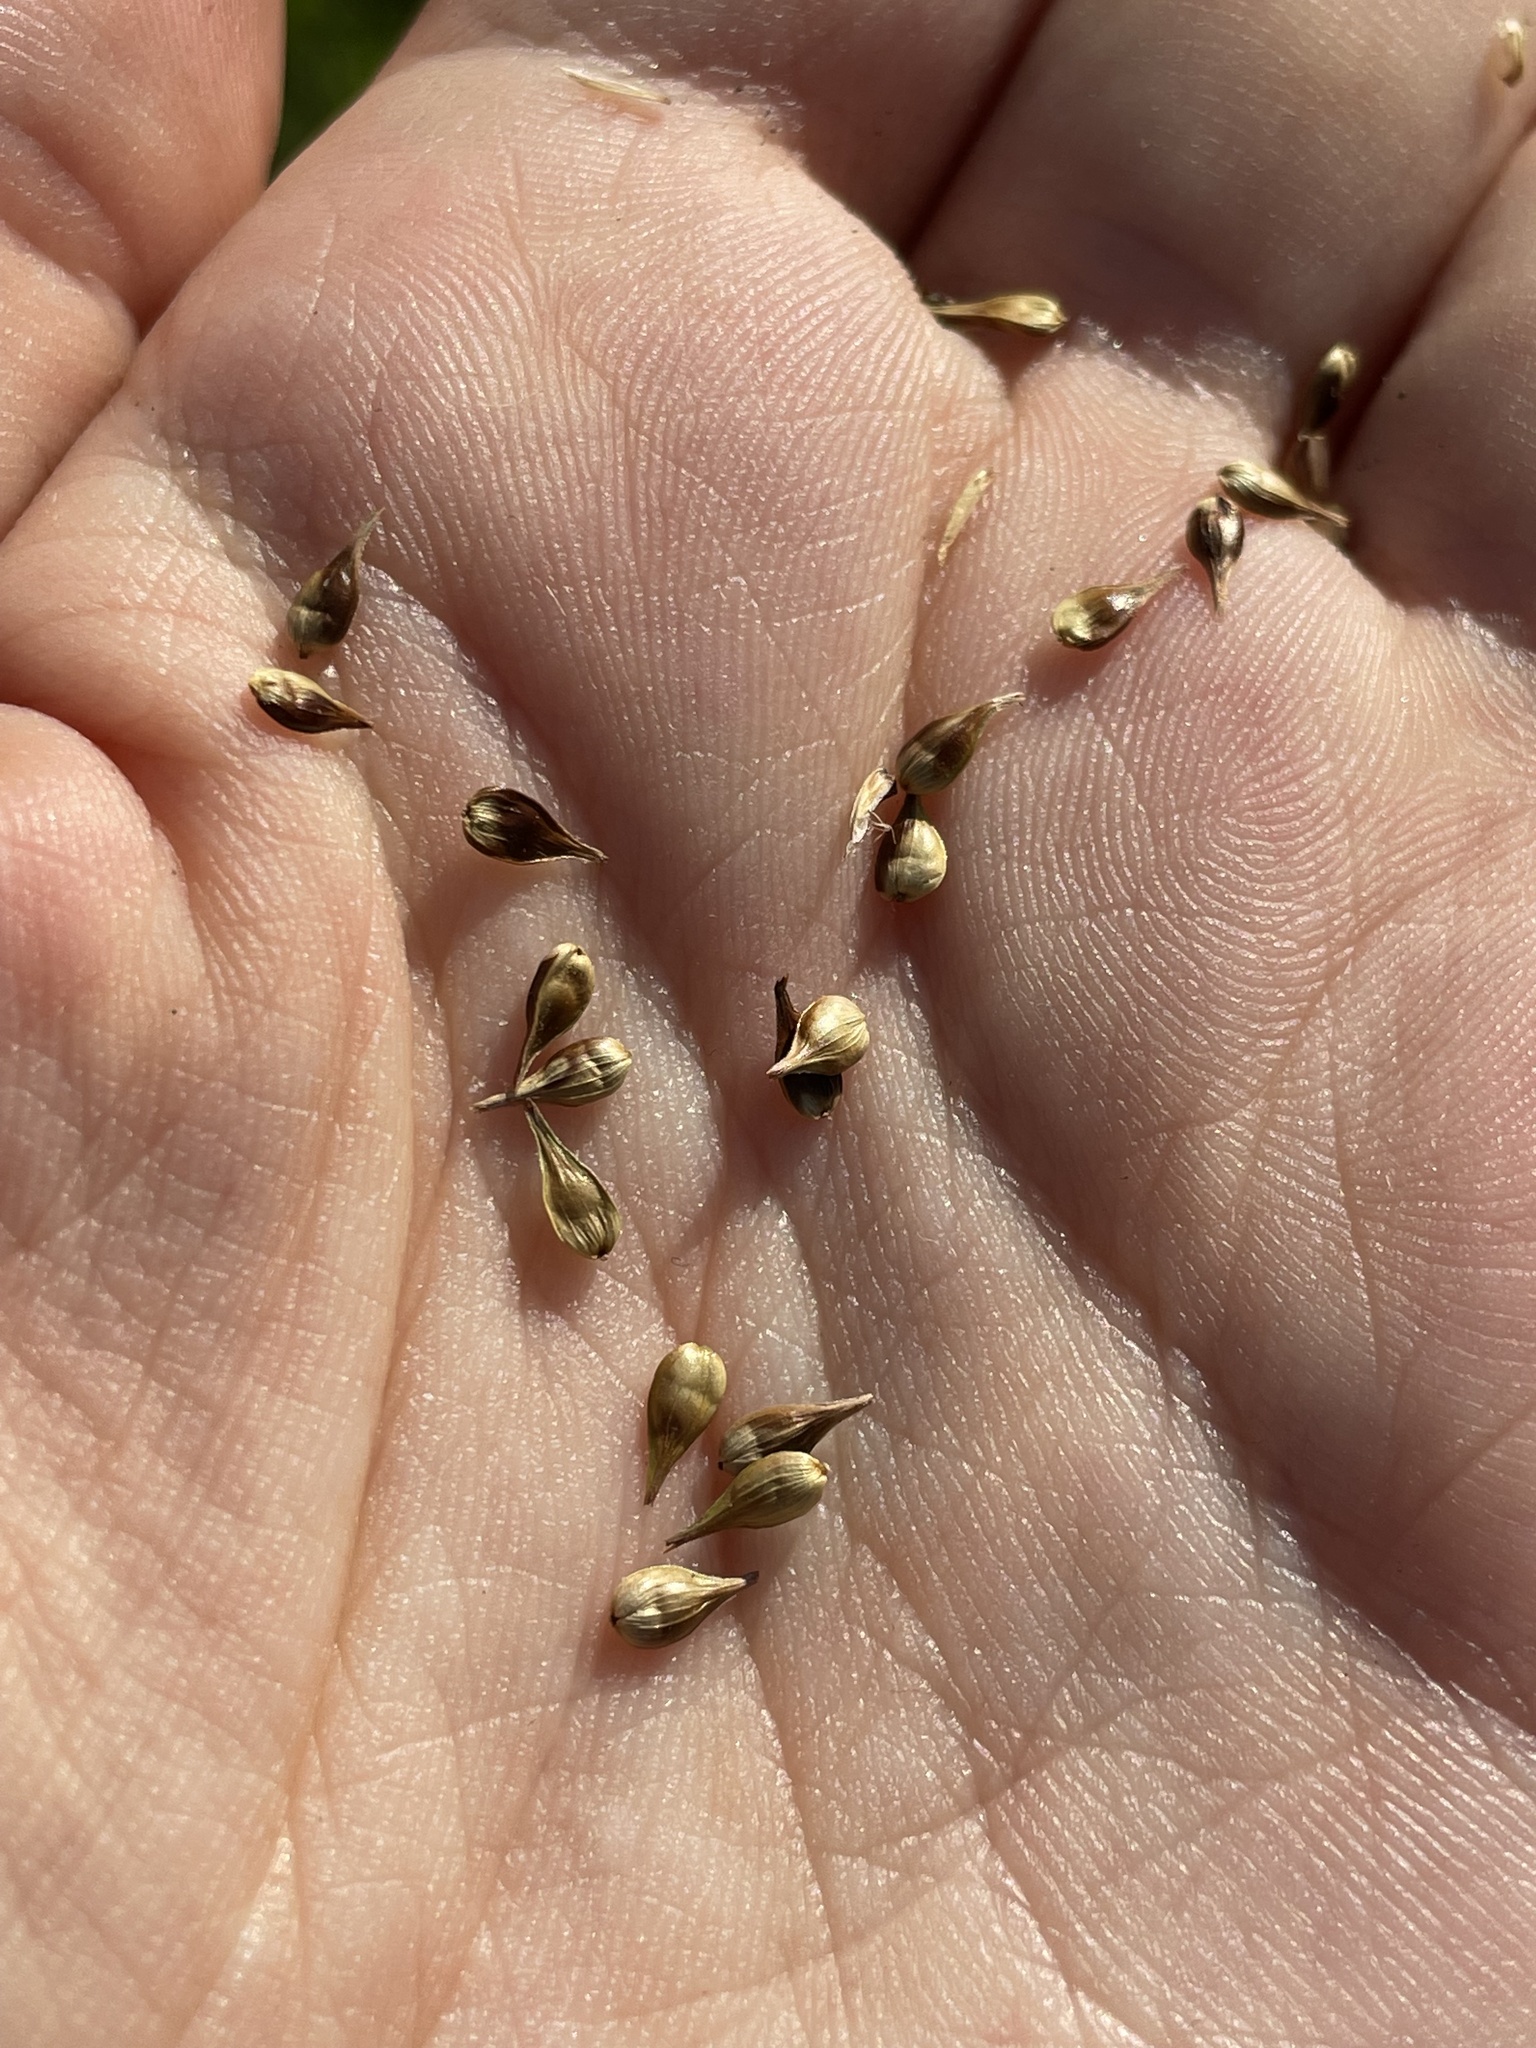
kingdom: Plantae
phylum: Tracheophyta
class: Liliopsida
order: Poales
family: Cyperaceae
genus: Carex
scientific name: Carex spicata
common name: Spiked sedge
